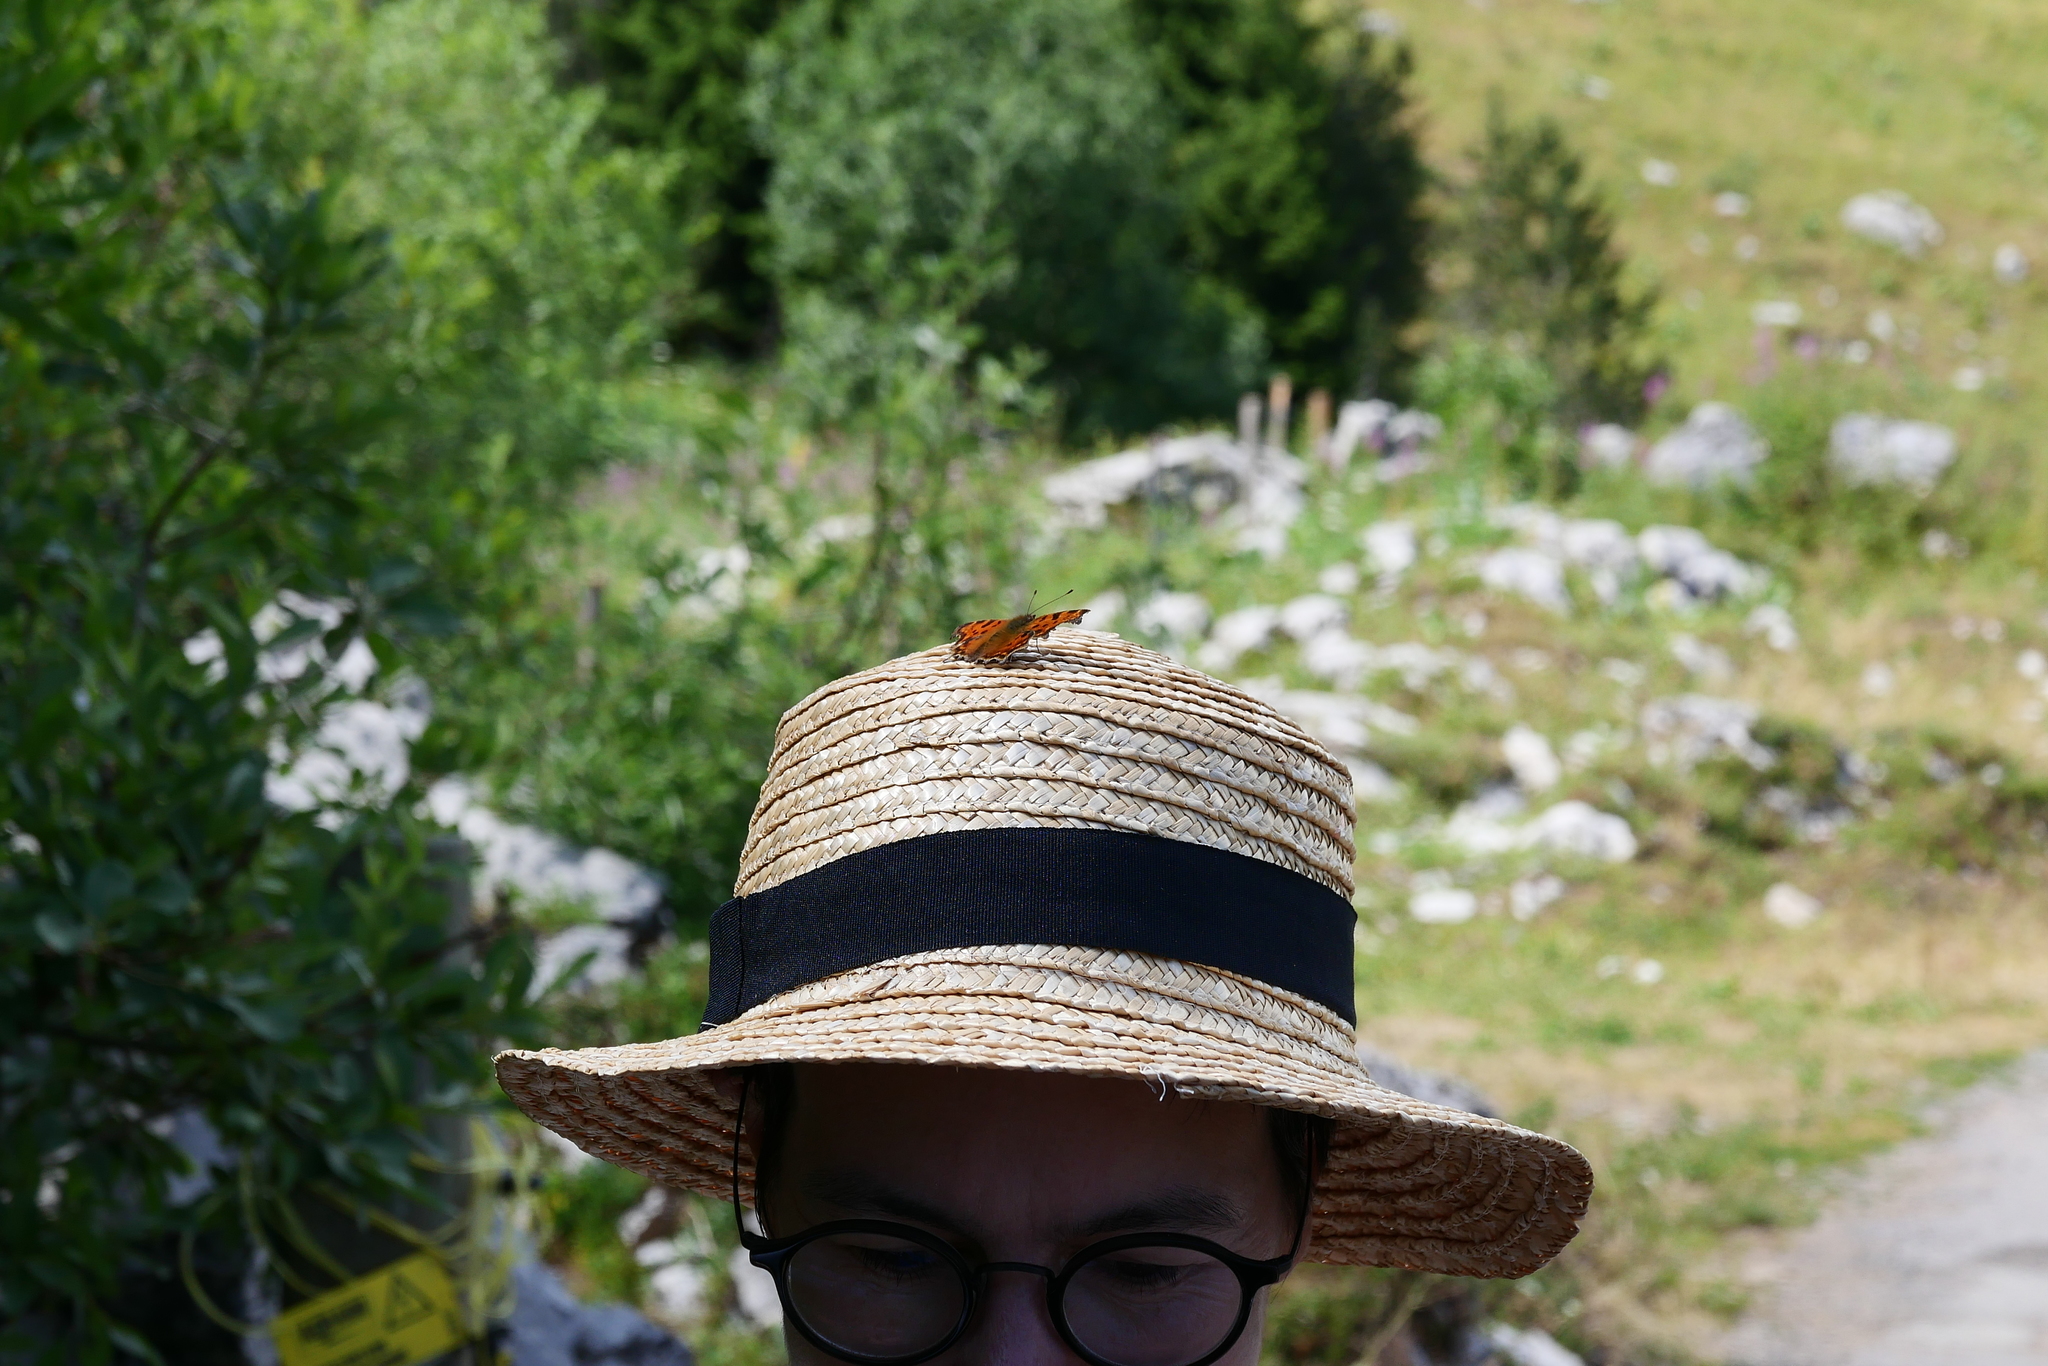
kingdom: Animalia
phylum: Arthropoda
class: Insecta
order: Lepidoptera
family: Nymphalidae
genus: Polygonia
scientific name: Polygonia c-album
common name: Comma
